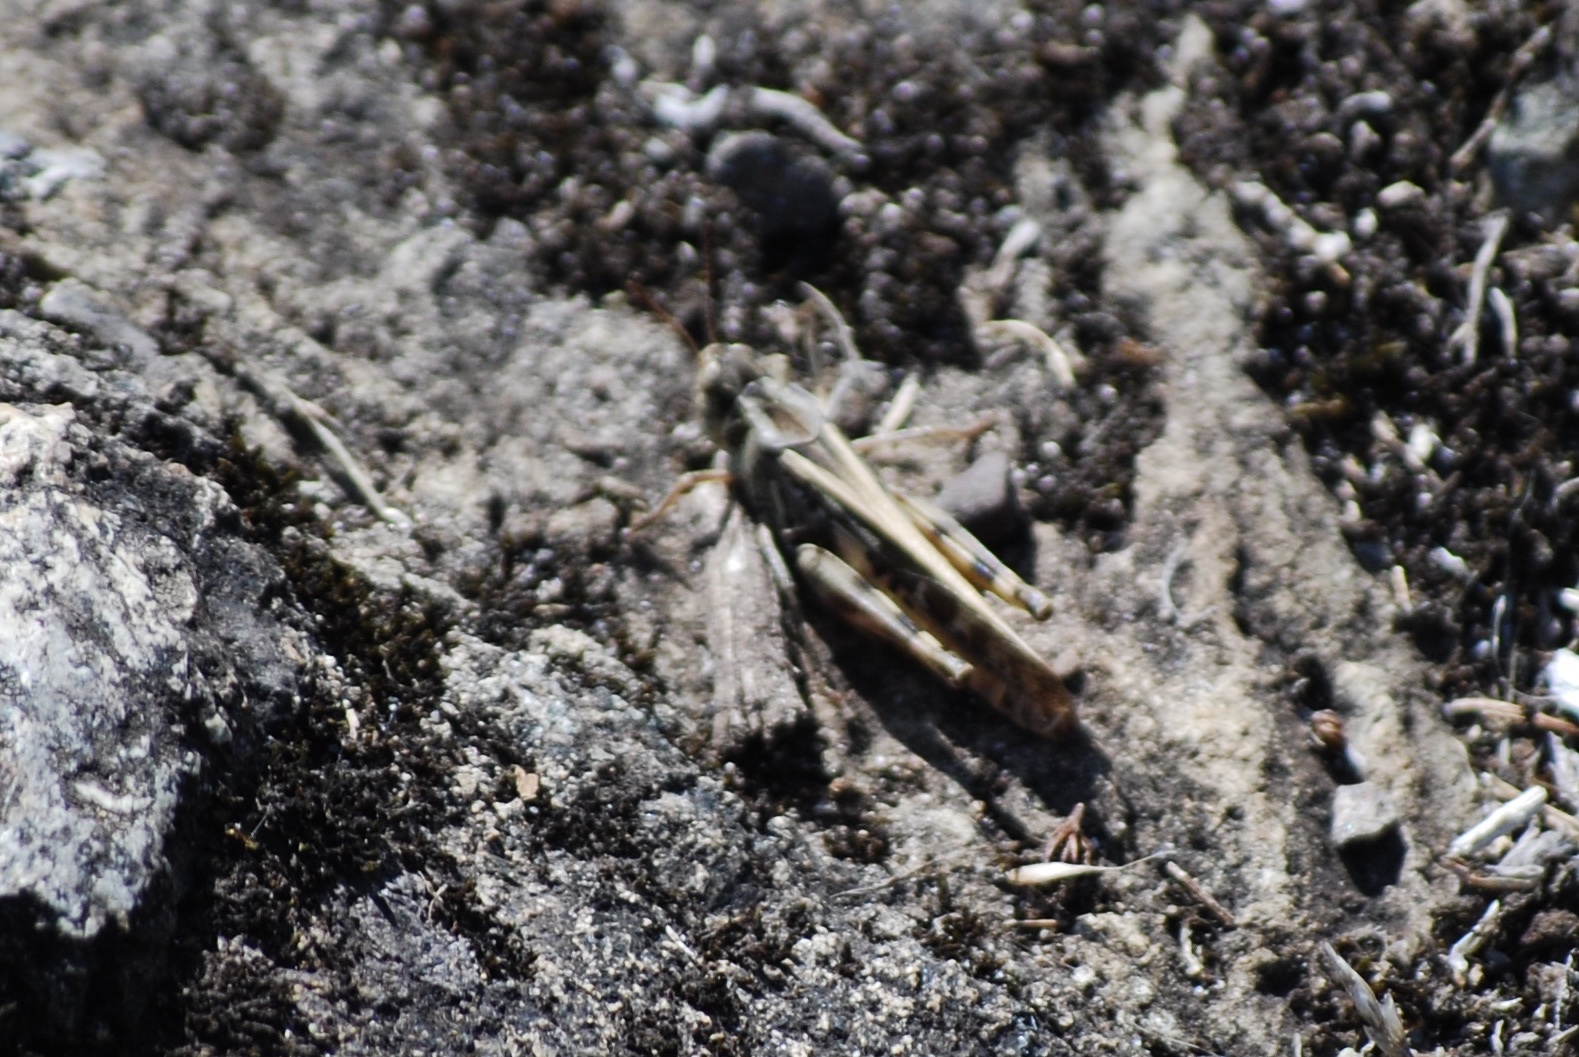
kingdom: Animalia
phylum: Arthropoda
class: Insecta
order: Orthoptera
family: Acrididae
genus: Camnula
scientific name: Camnula pellucida
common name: Clear-winged grasshopper
